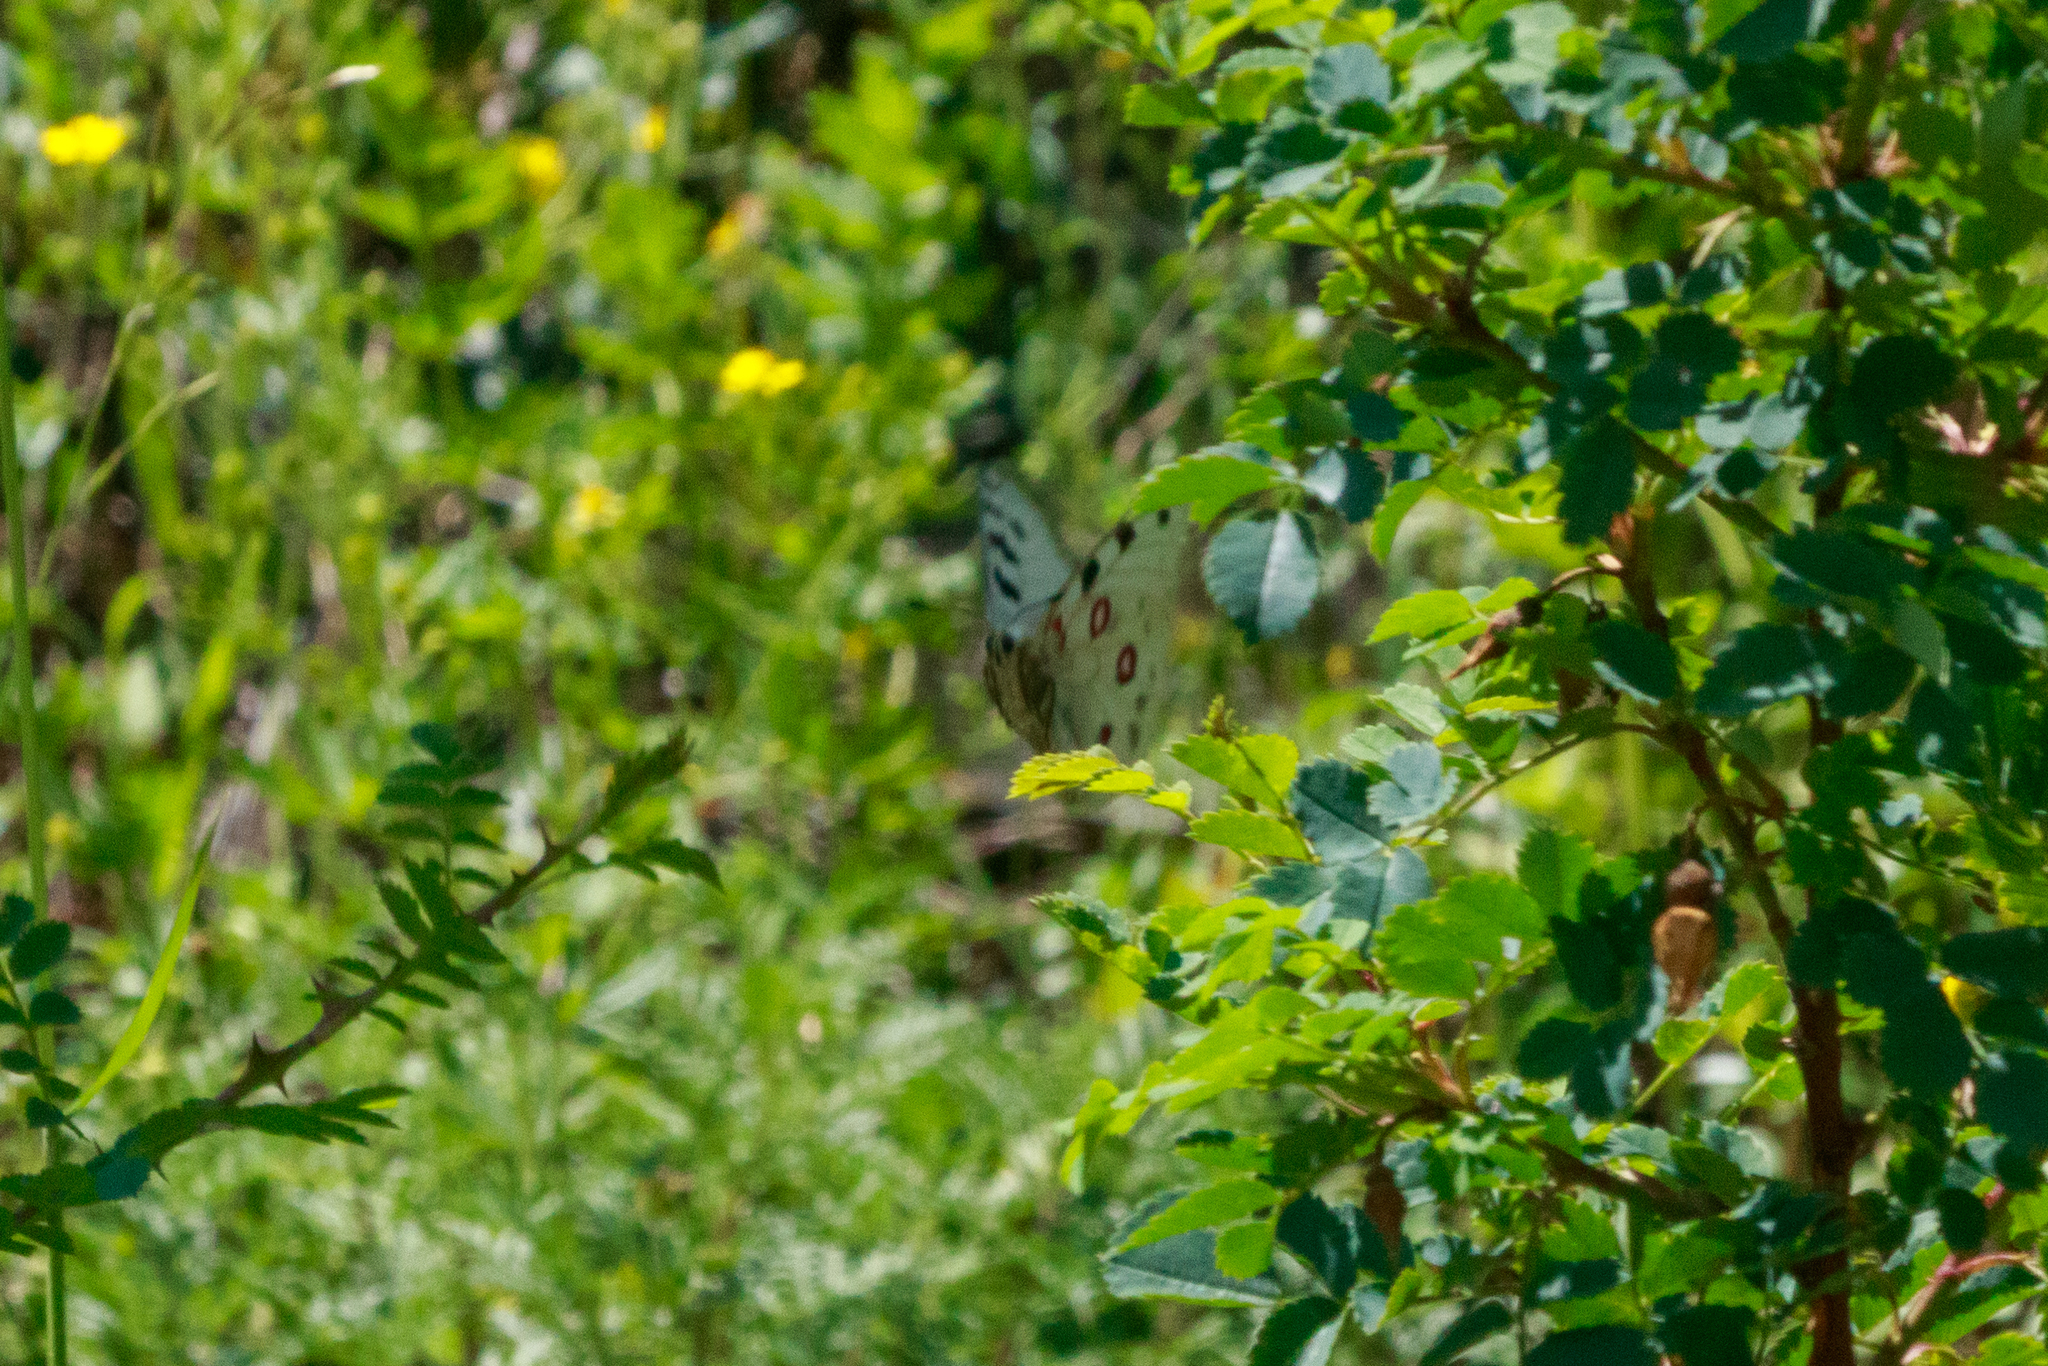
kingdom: Animalia
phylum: Arthropoda
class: Insecta
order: Lepidoptera
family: Papilionidae
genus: Parnassius
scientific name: Parnassius apollo
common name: Apollo
